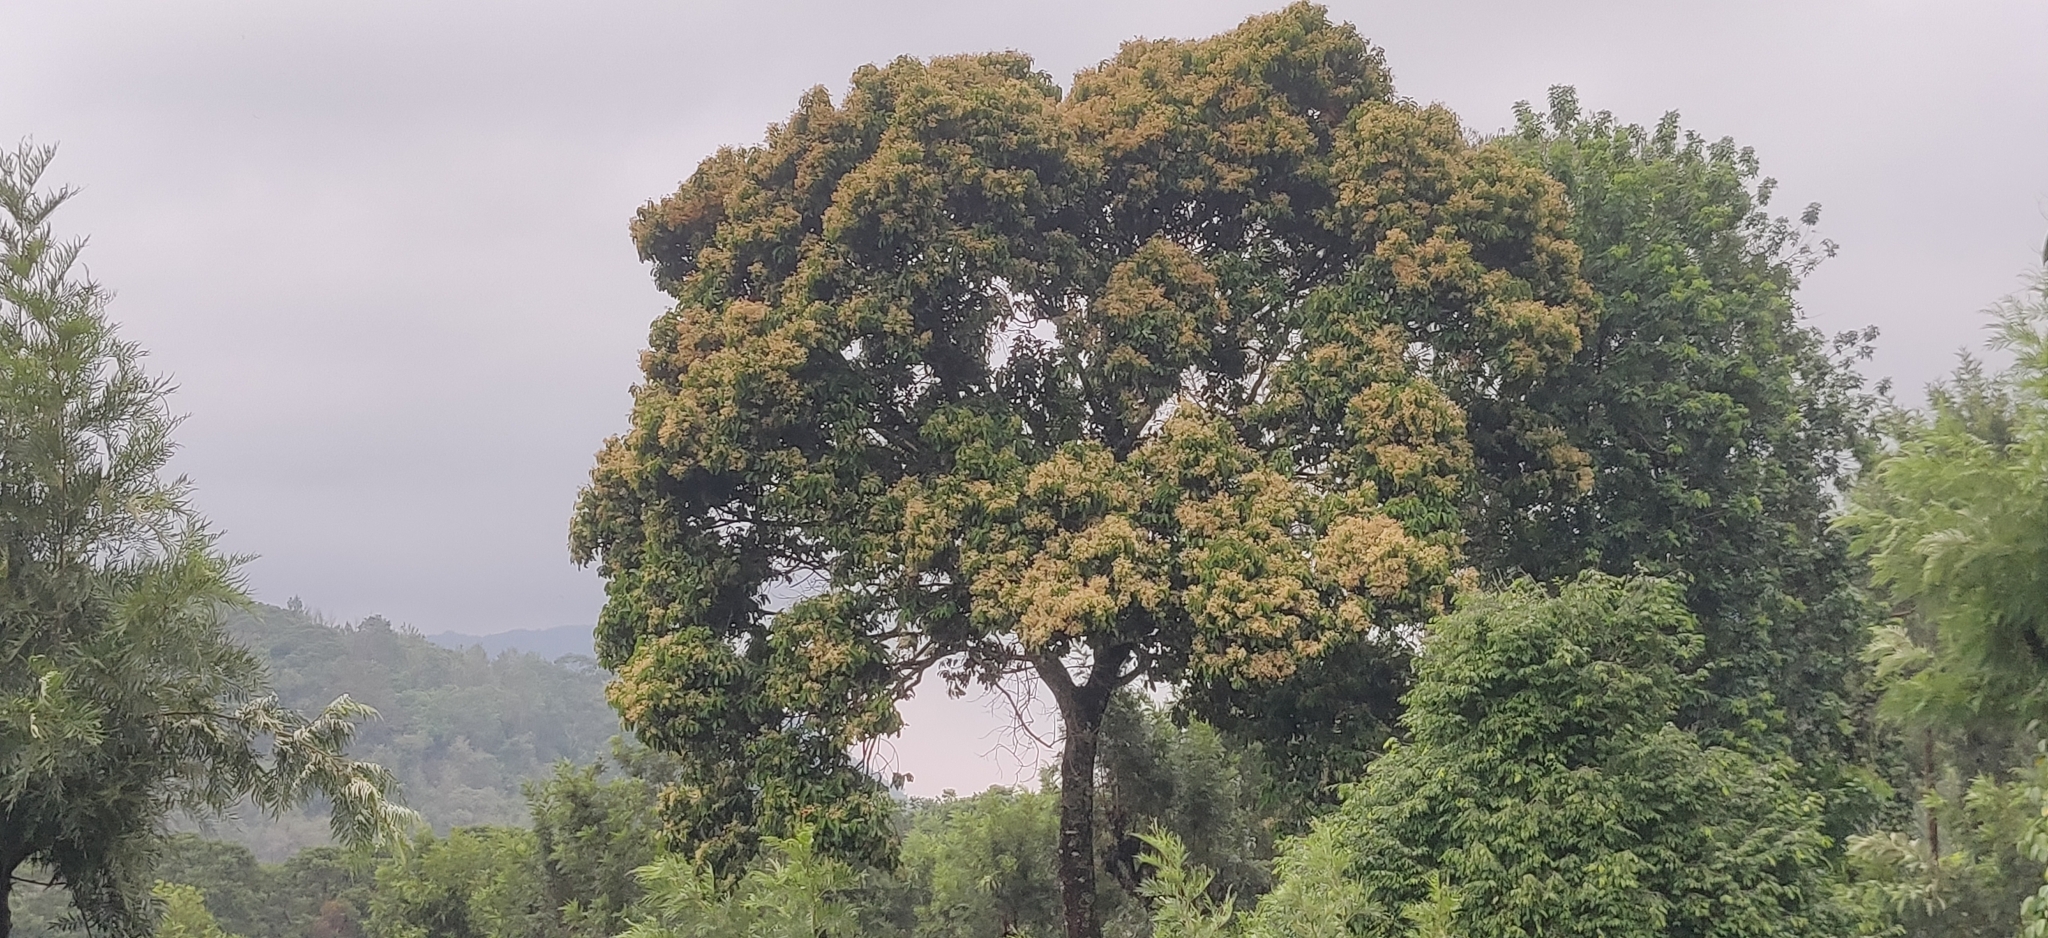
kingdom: Plantae
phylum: Tracheophyta
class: Magnoliopsida
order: Malvales
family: Dipterocarpaceae
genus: Vateria
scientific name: Vateria indica
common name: White dammar
